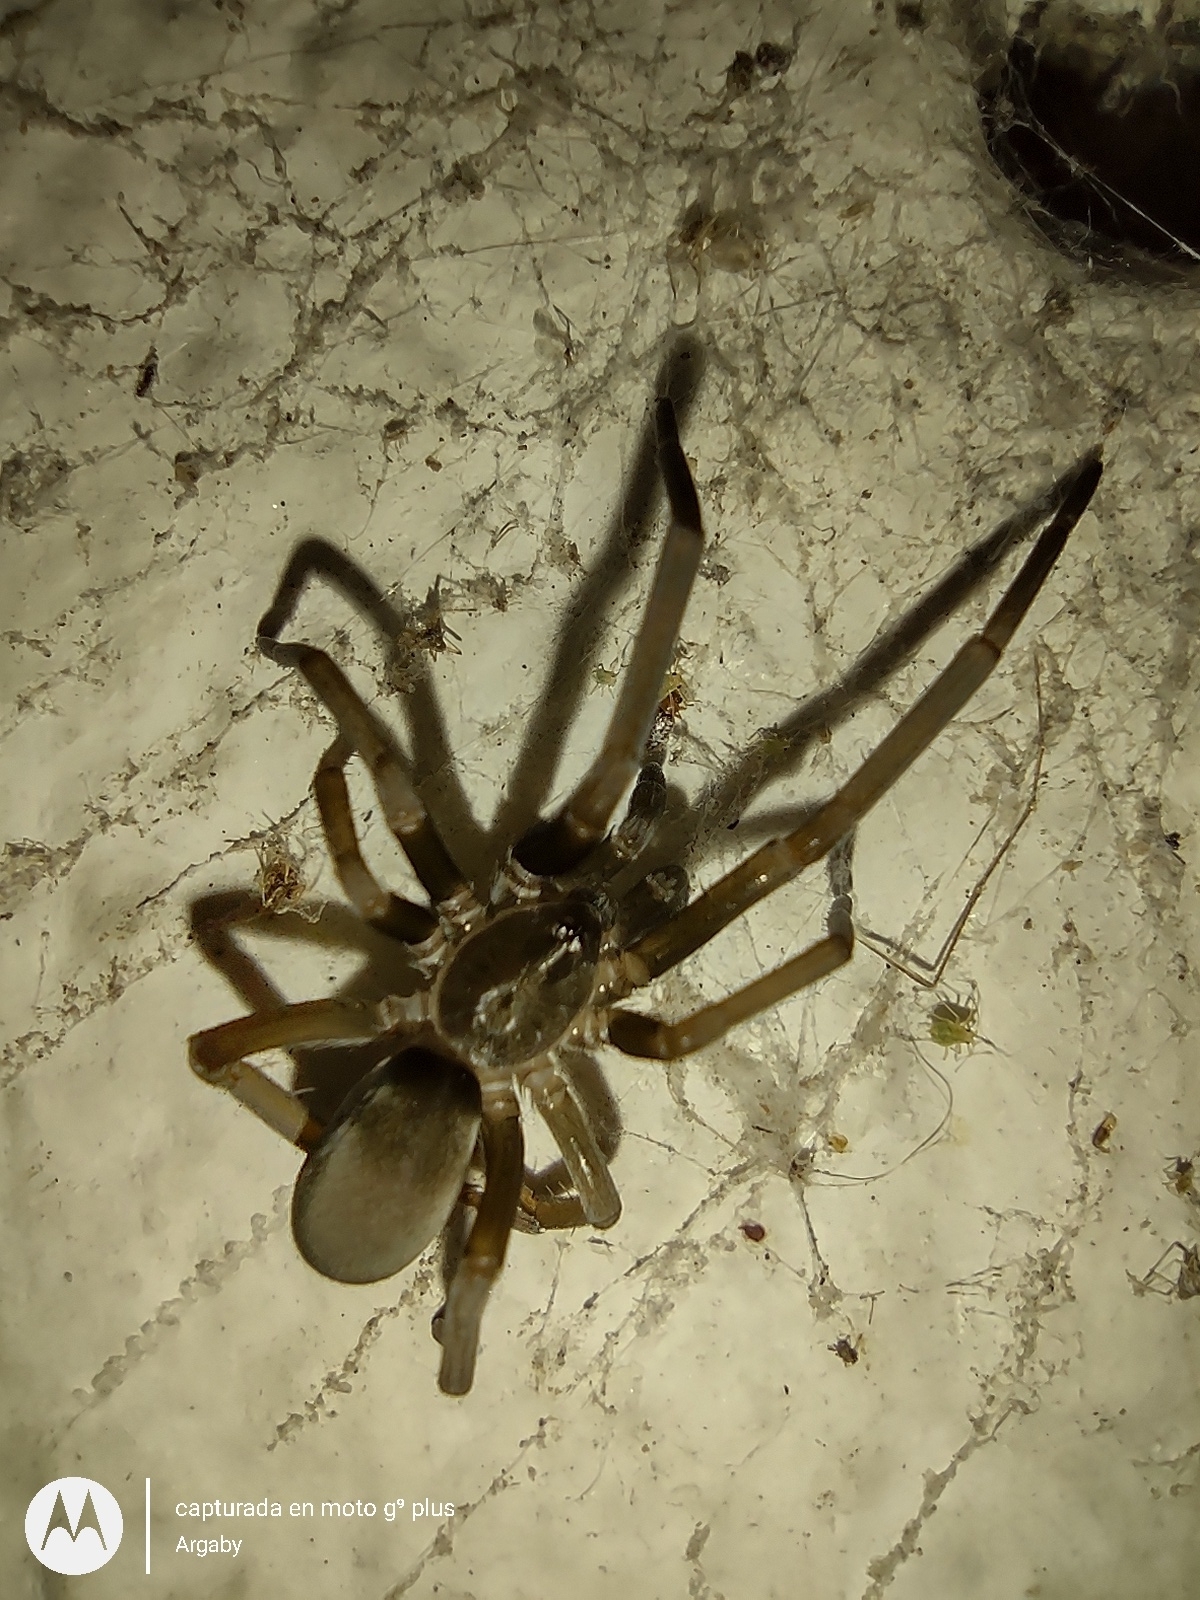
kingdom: Animalia
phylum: Arthropoda
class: Arachnida
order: Araneae
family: Filistatidae
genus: Kukulcania
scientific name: Kukulcania hibernalis
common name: Crevice weaver
